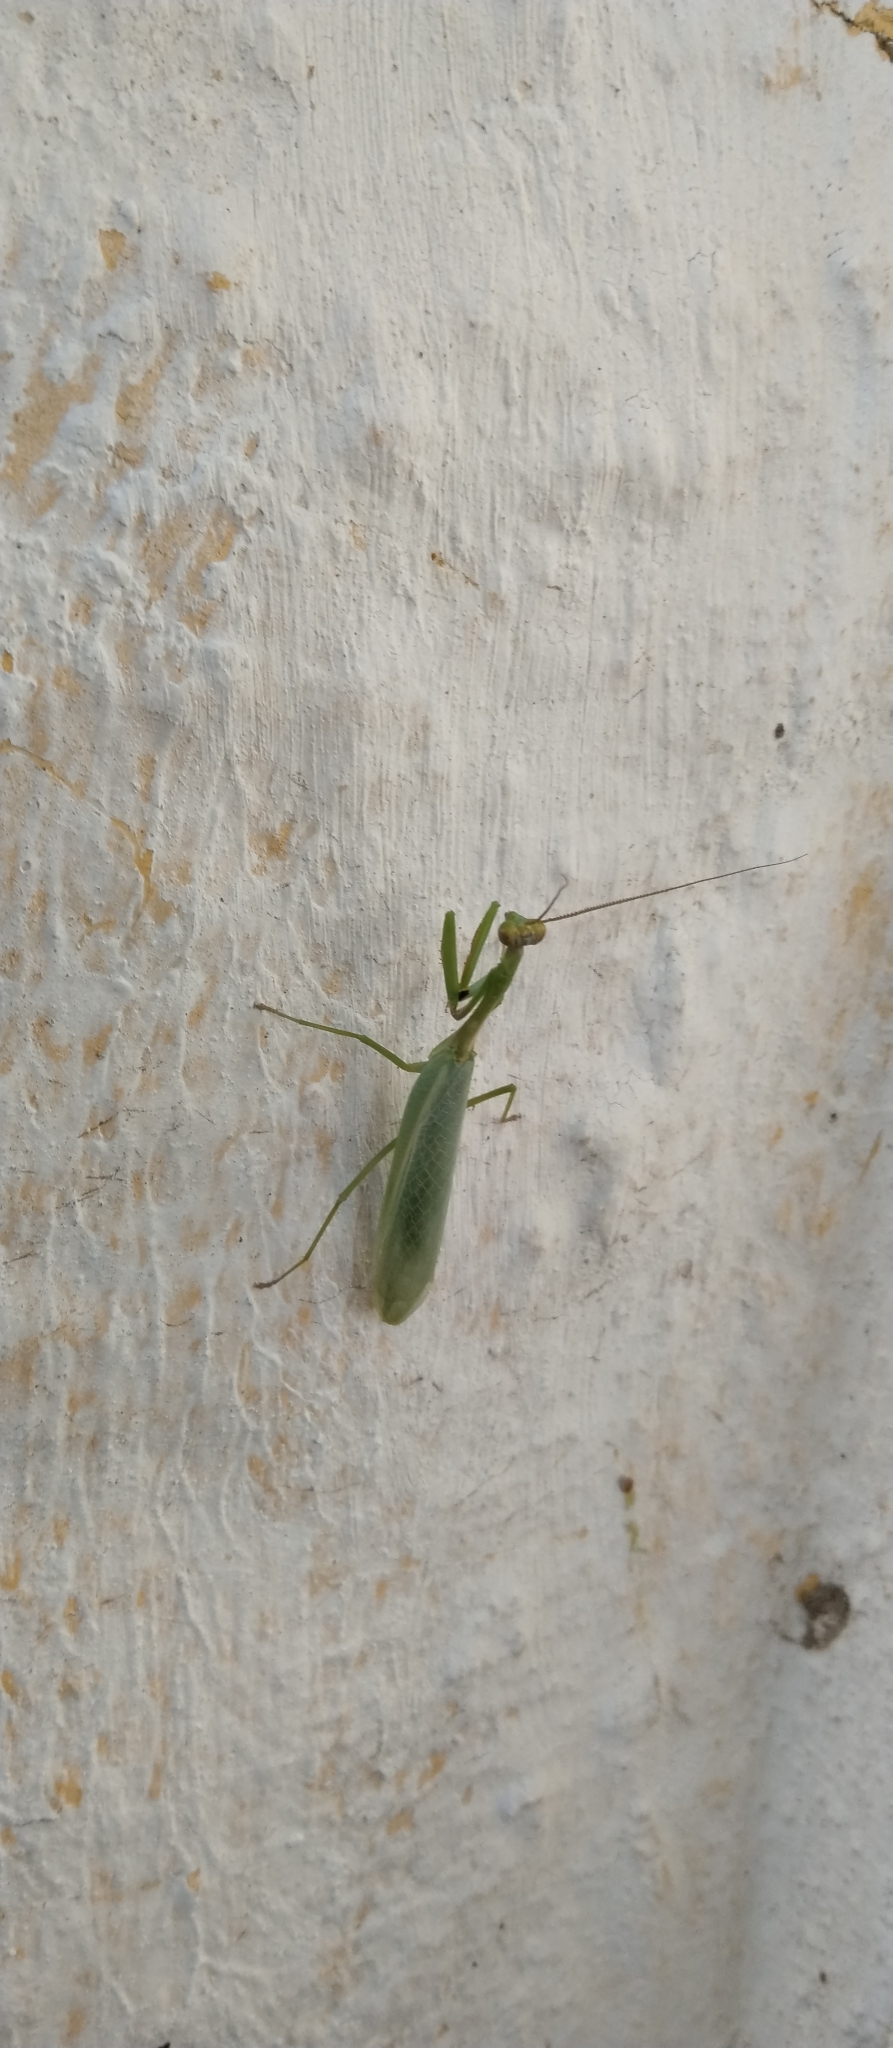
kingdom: Animalia
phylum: Arthropoda
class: Insecta
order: Mantodea
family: Mantidae
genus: Parastagmatoptera
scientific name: Parastagmatoptera theresopolitana
